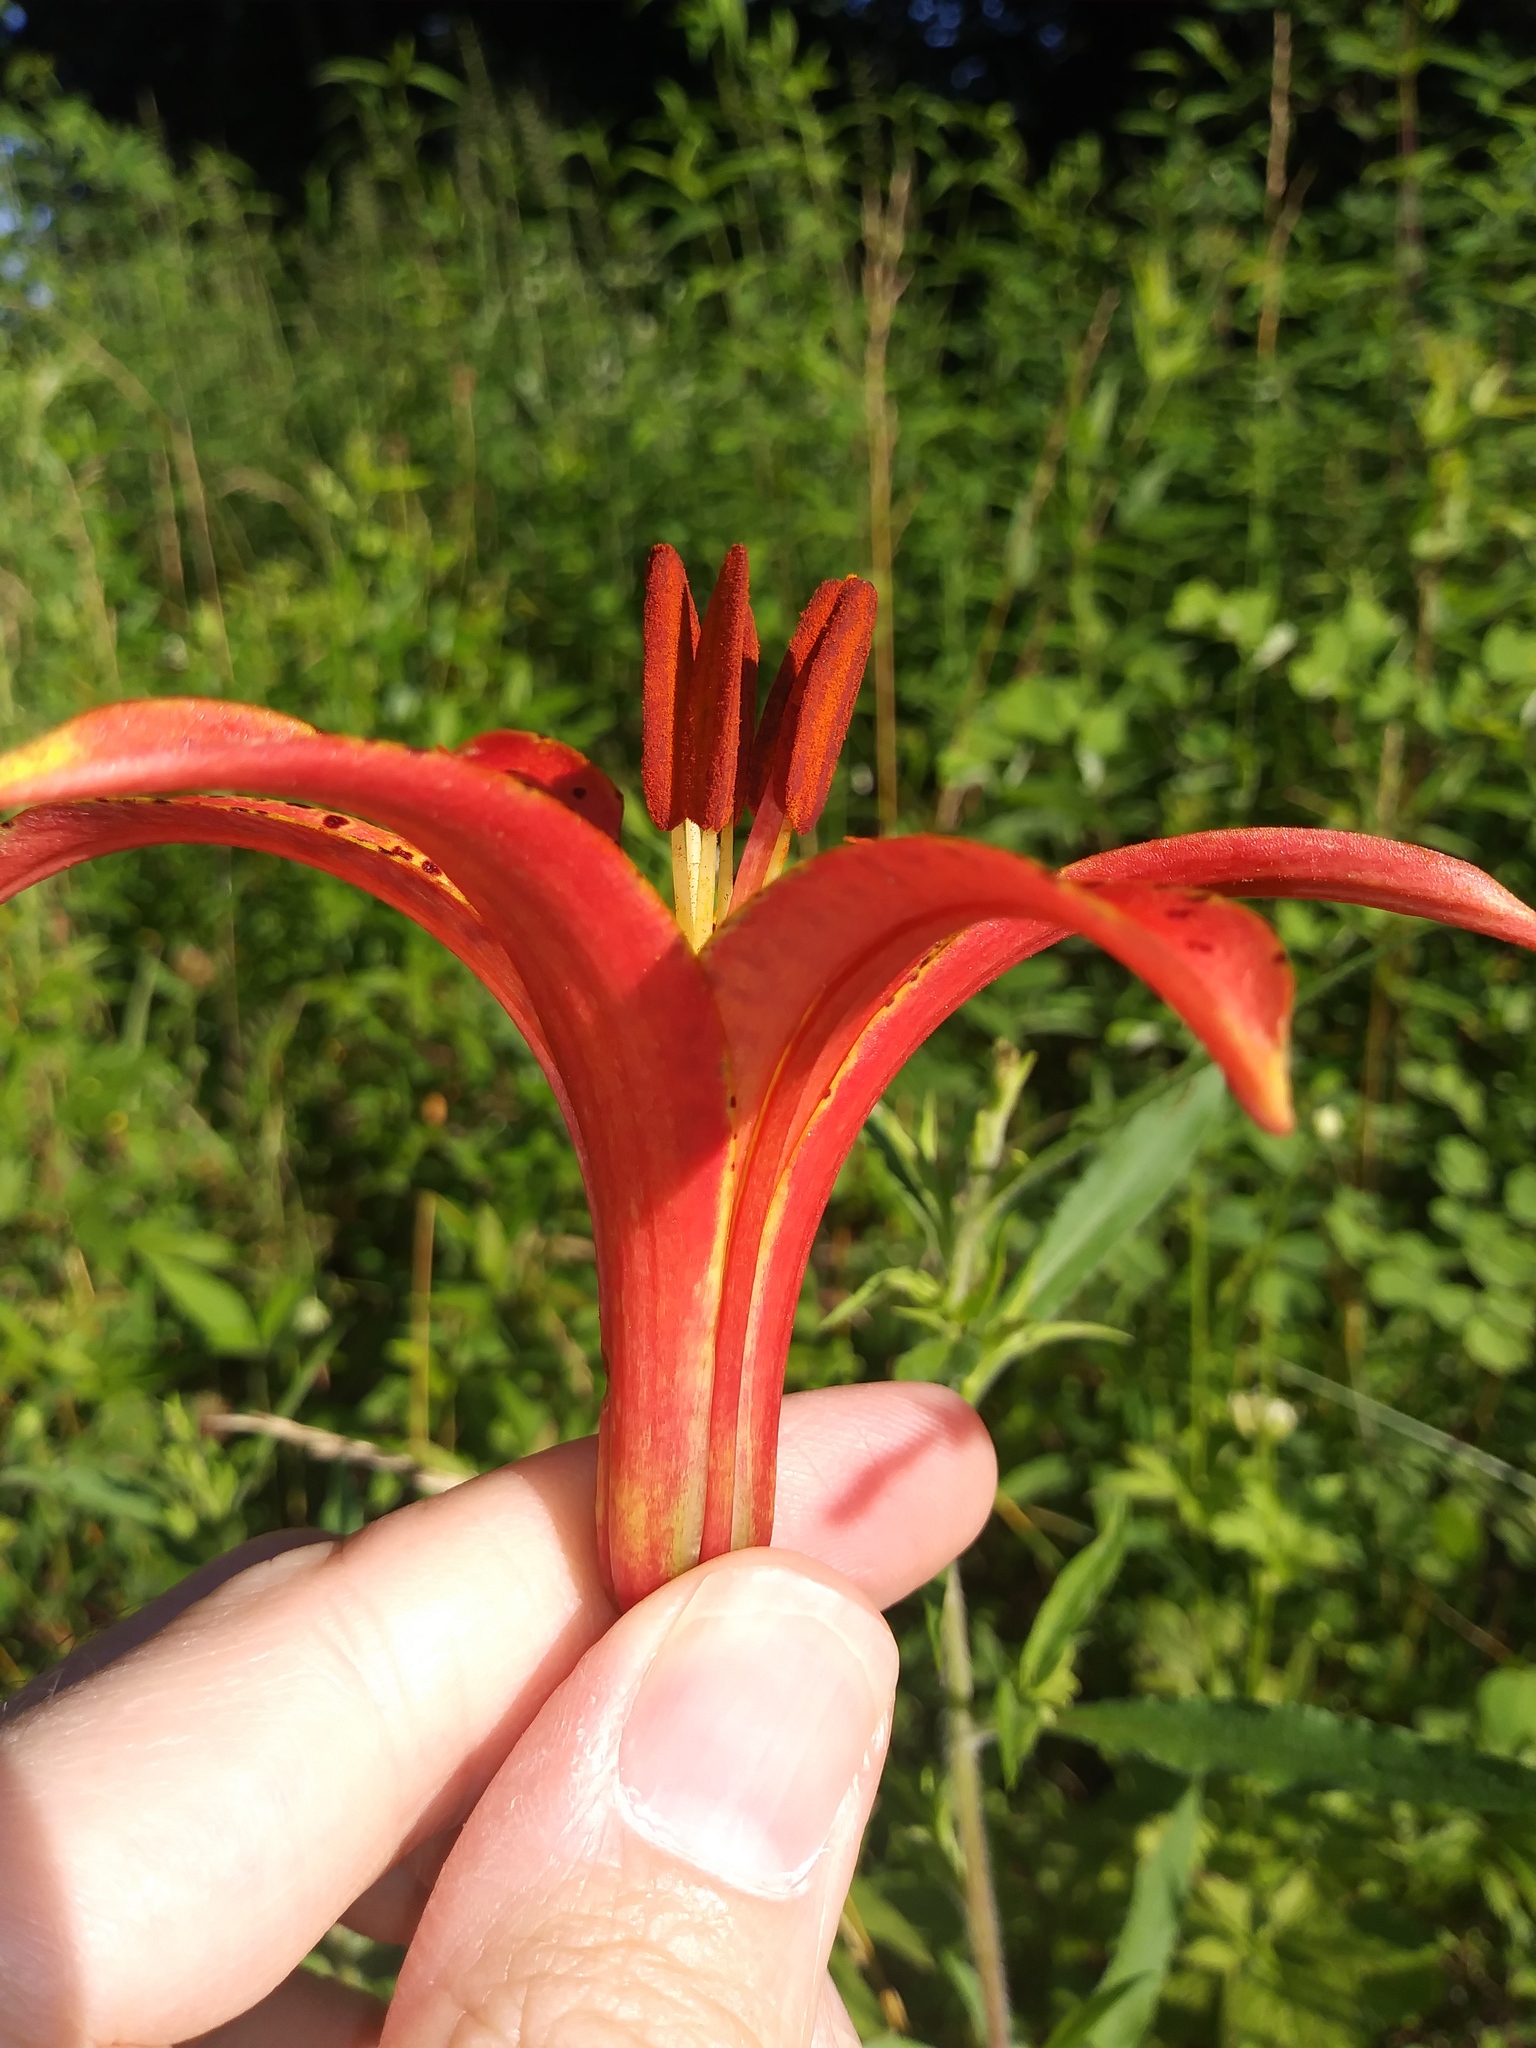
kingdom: Plantae
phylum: Tracheophyta
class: Liliopsida
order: Liliales
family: Liliaceae
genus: Lilium
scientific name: Lilium philadelphicum
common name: Red lily
